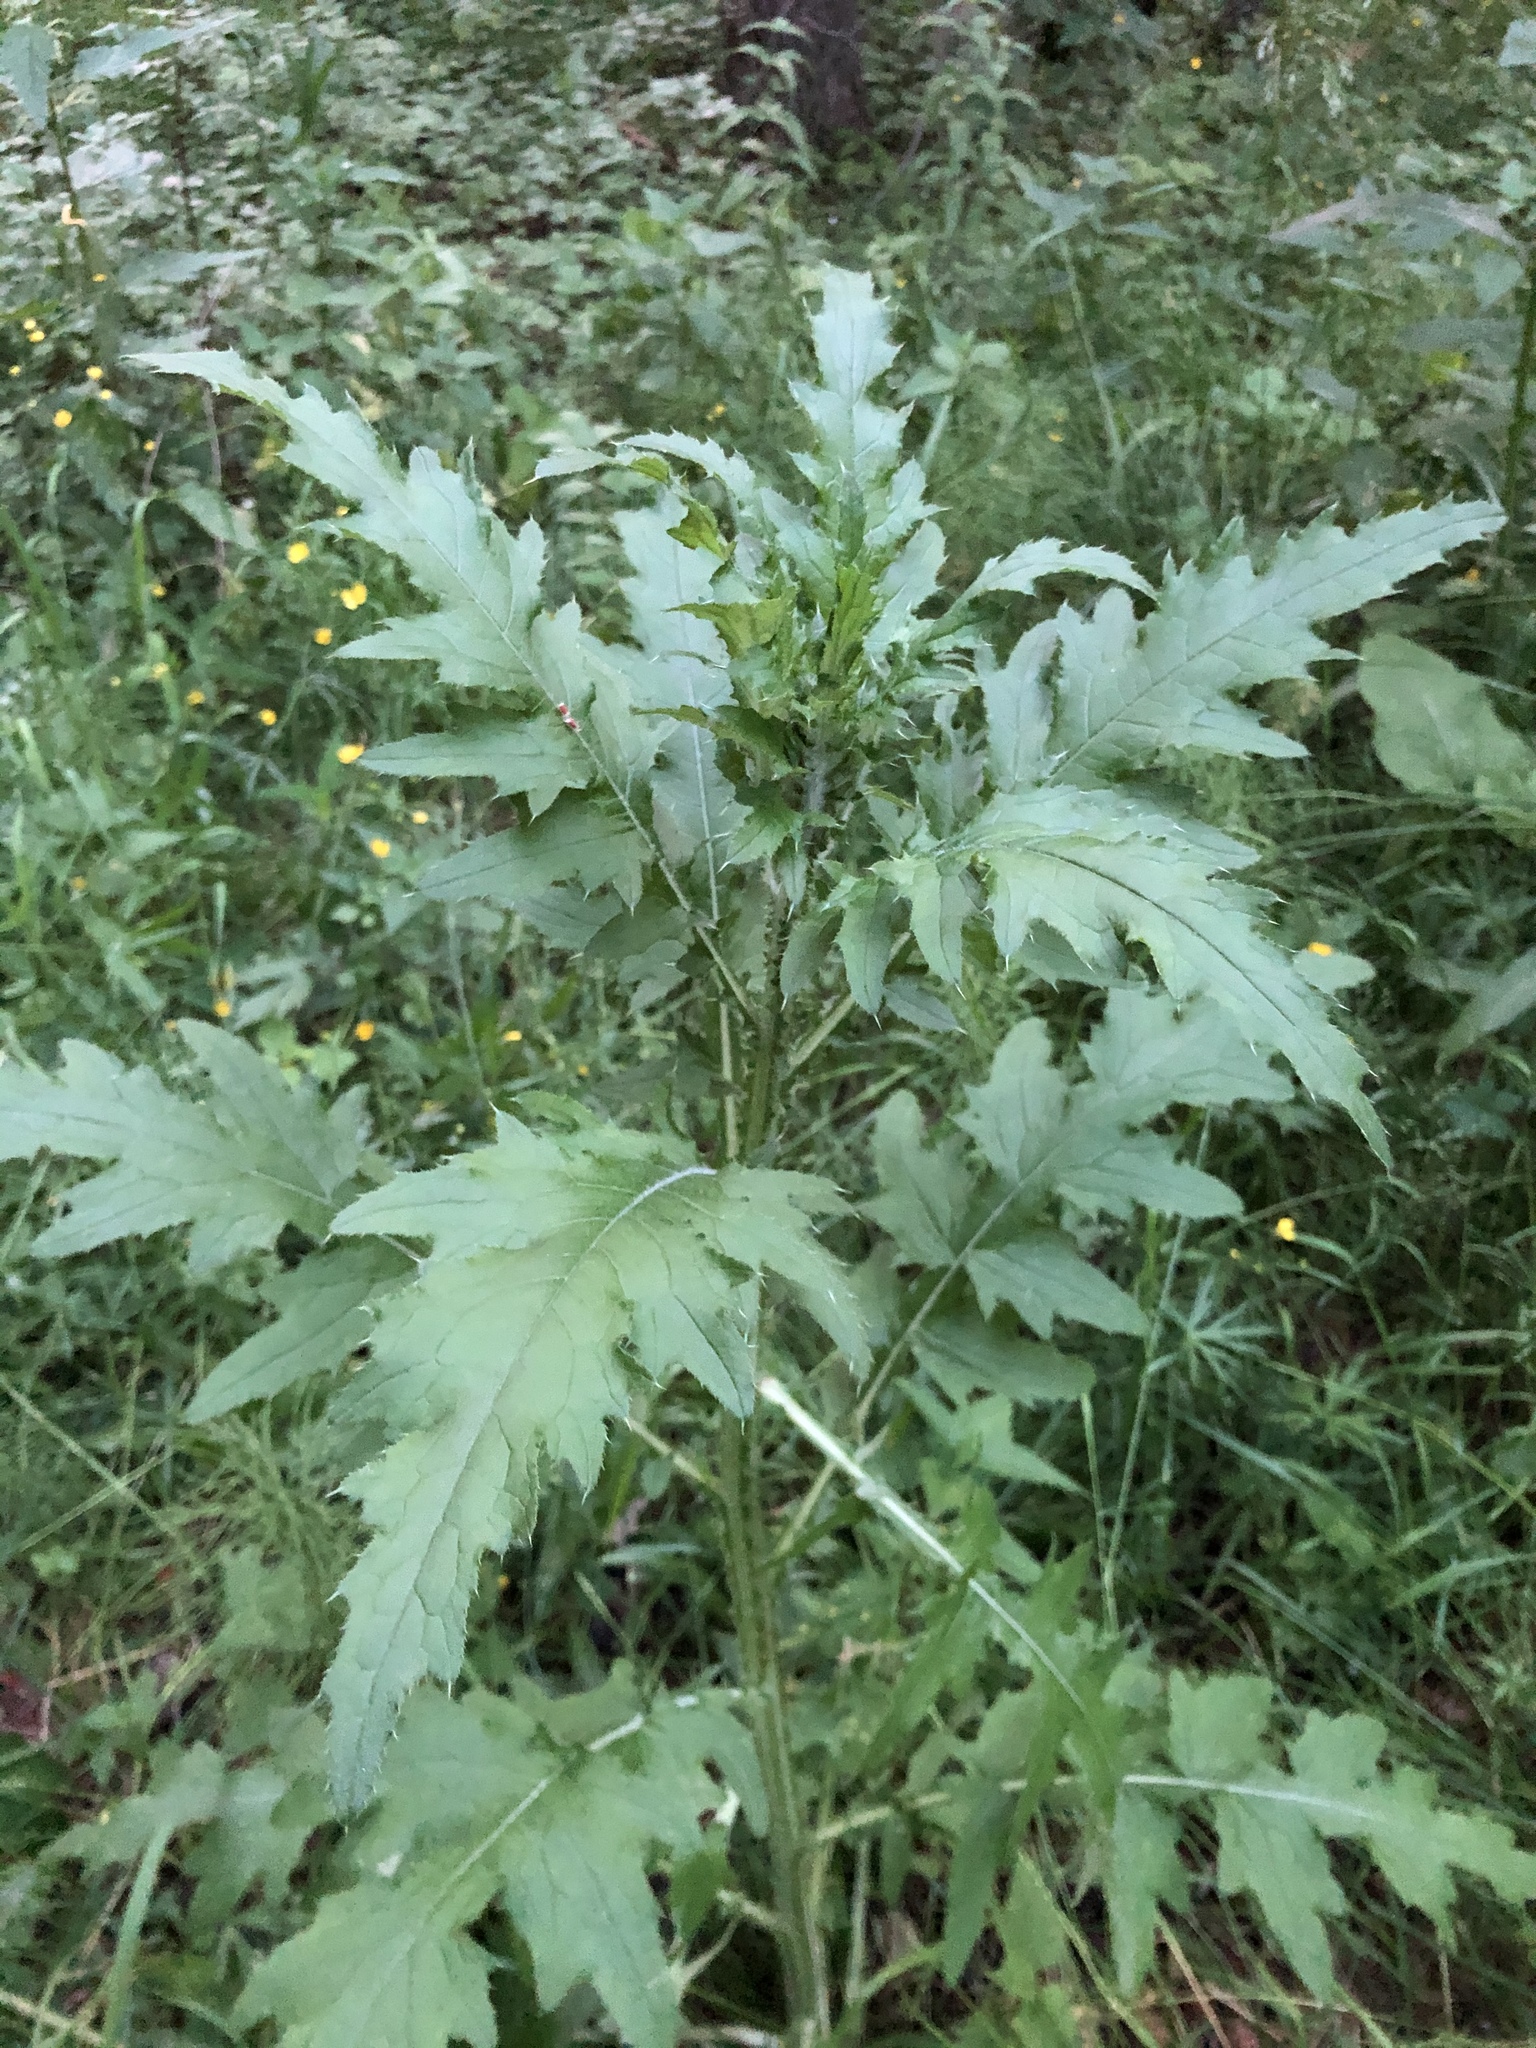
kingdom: Plantae
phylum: Tracheophyta
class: Magnoliopsida
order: Asterales
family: Asteraceae
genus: Carduus
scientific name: Carduus crispus
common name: Welted thistle
